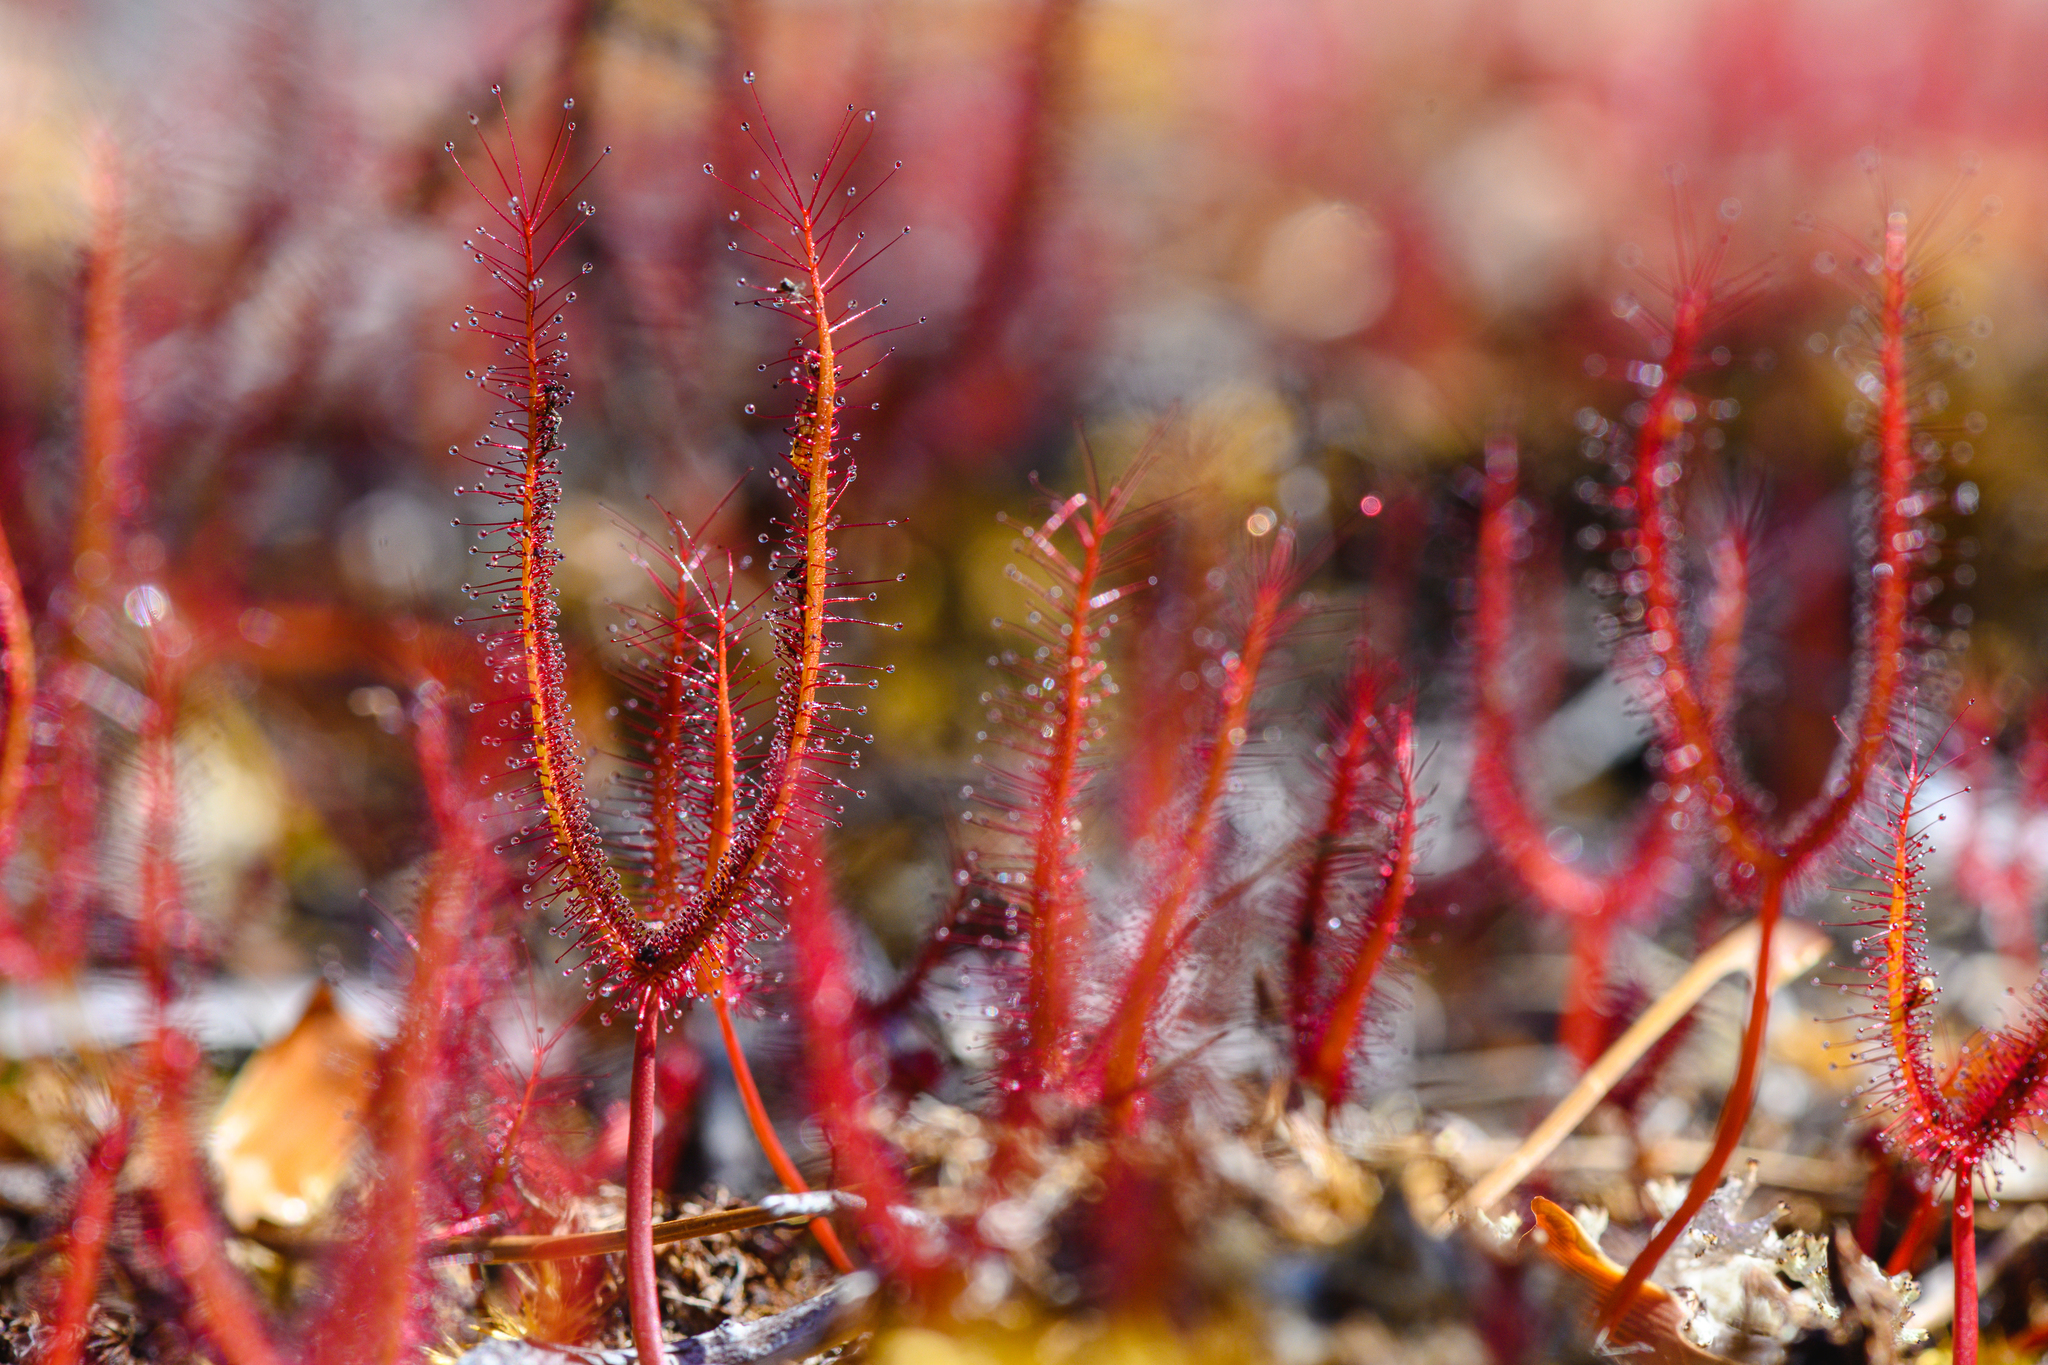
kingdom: Plantae
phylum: Tracheophyta
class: Magnoliopsida
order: Caryophyllales
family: Droseraceae
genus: Drosera
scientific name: Drosera binata
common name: Forked sundew
